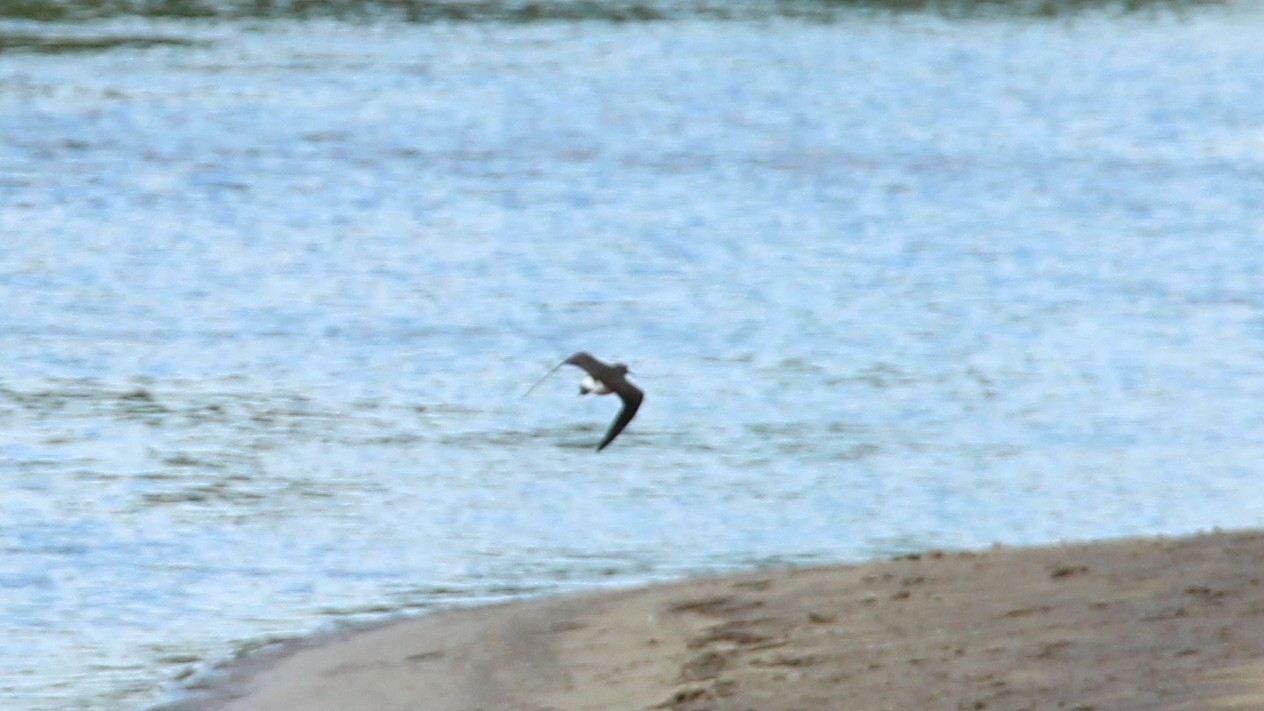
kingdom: Animalia
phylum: Chordata
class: Aves
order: Charadriiformes
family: Scolopacidae
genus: Tringa
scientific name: Tringa ochropus
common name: Green sandpiper
